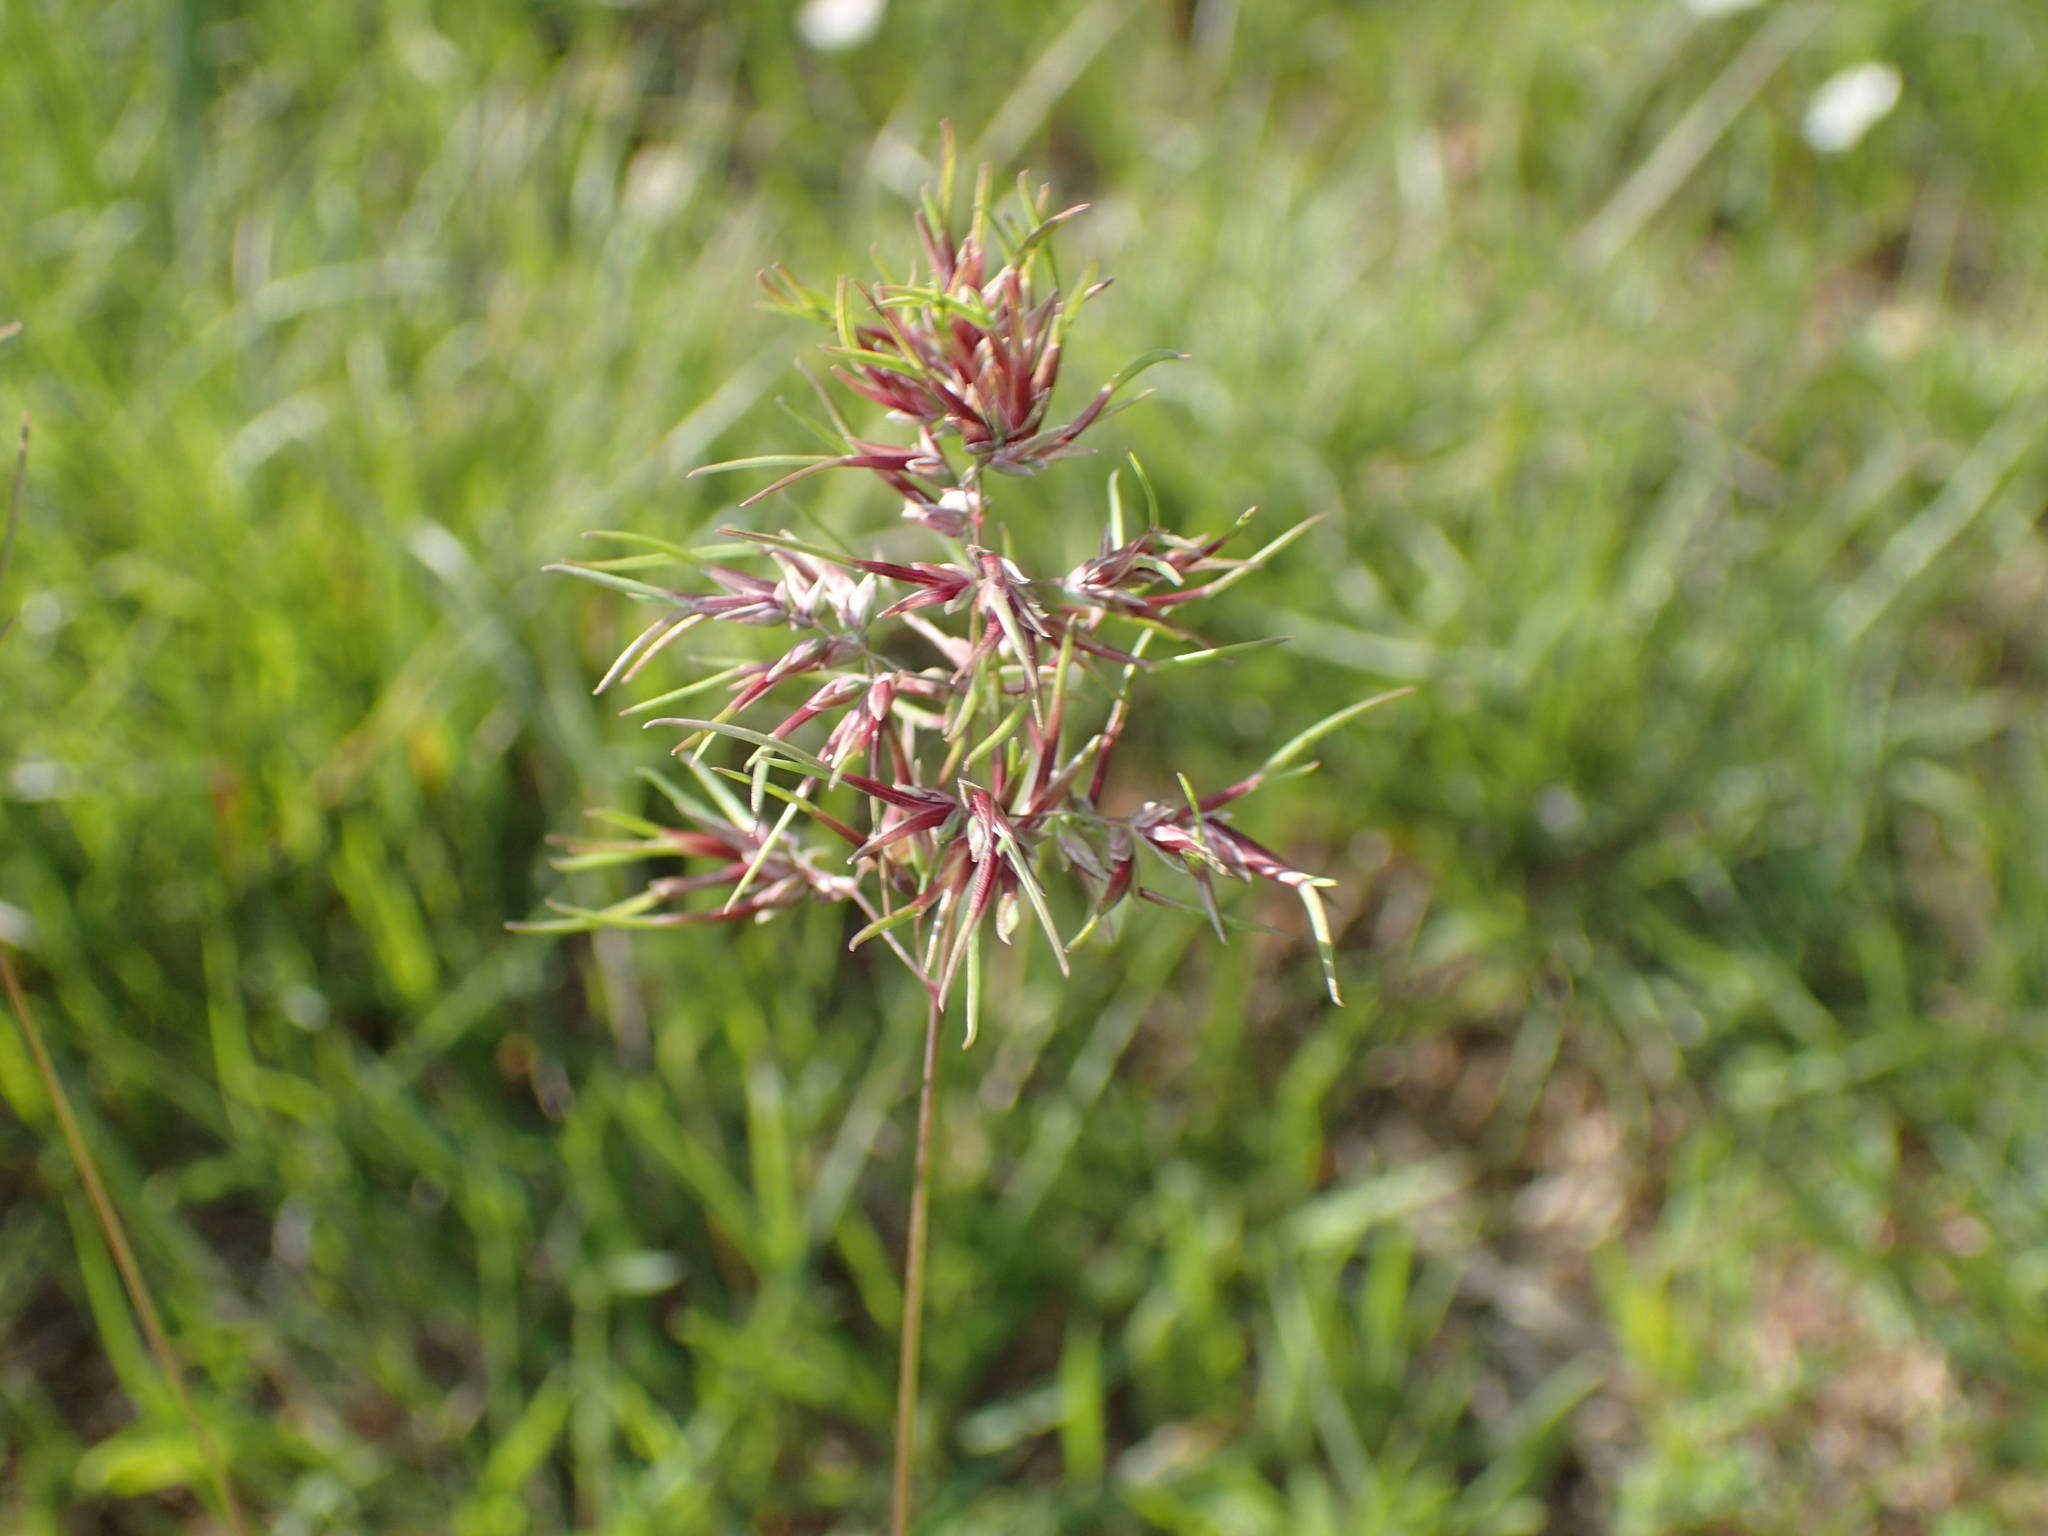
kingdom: Plantae
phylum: Tracheophyta
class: Liliopsida
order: Poales
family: Poaceae
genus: Poa
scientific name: Poa bulbosa
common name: Bulbous bluegrass
